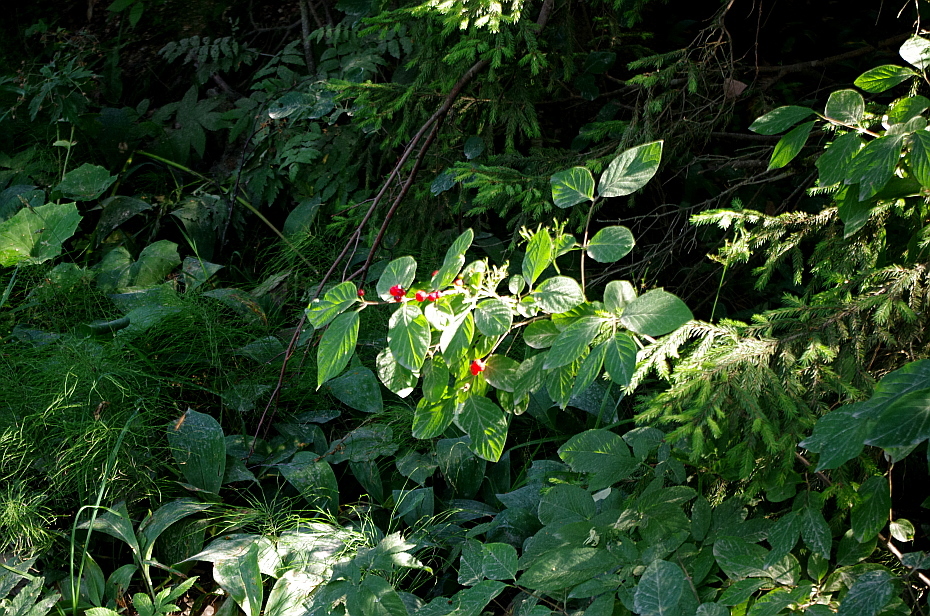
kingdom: Plantae
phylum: Tracheophyta
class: Magnoliopsida
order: Dipsacales
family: Caprifoliaceae
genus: Lonicera
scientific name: Lonicera xylosteum
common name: Fly honeysuckle
